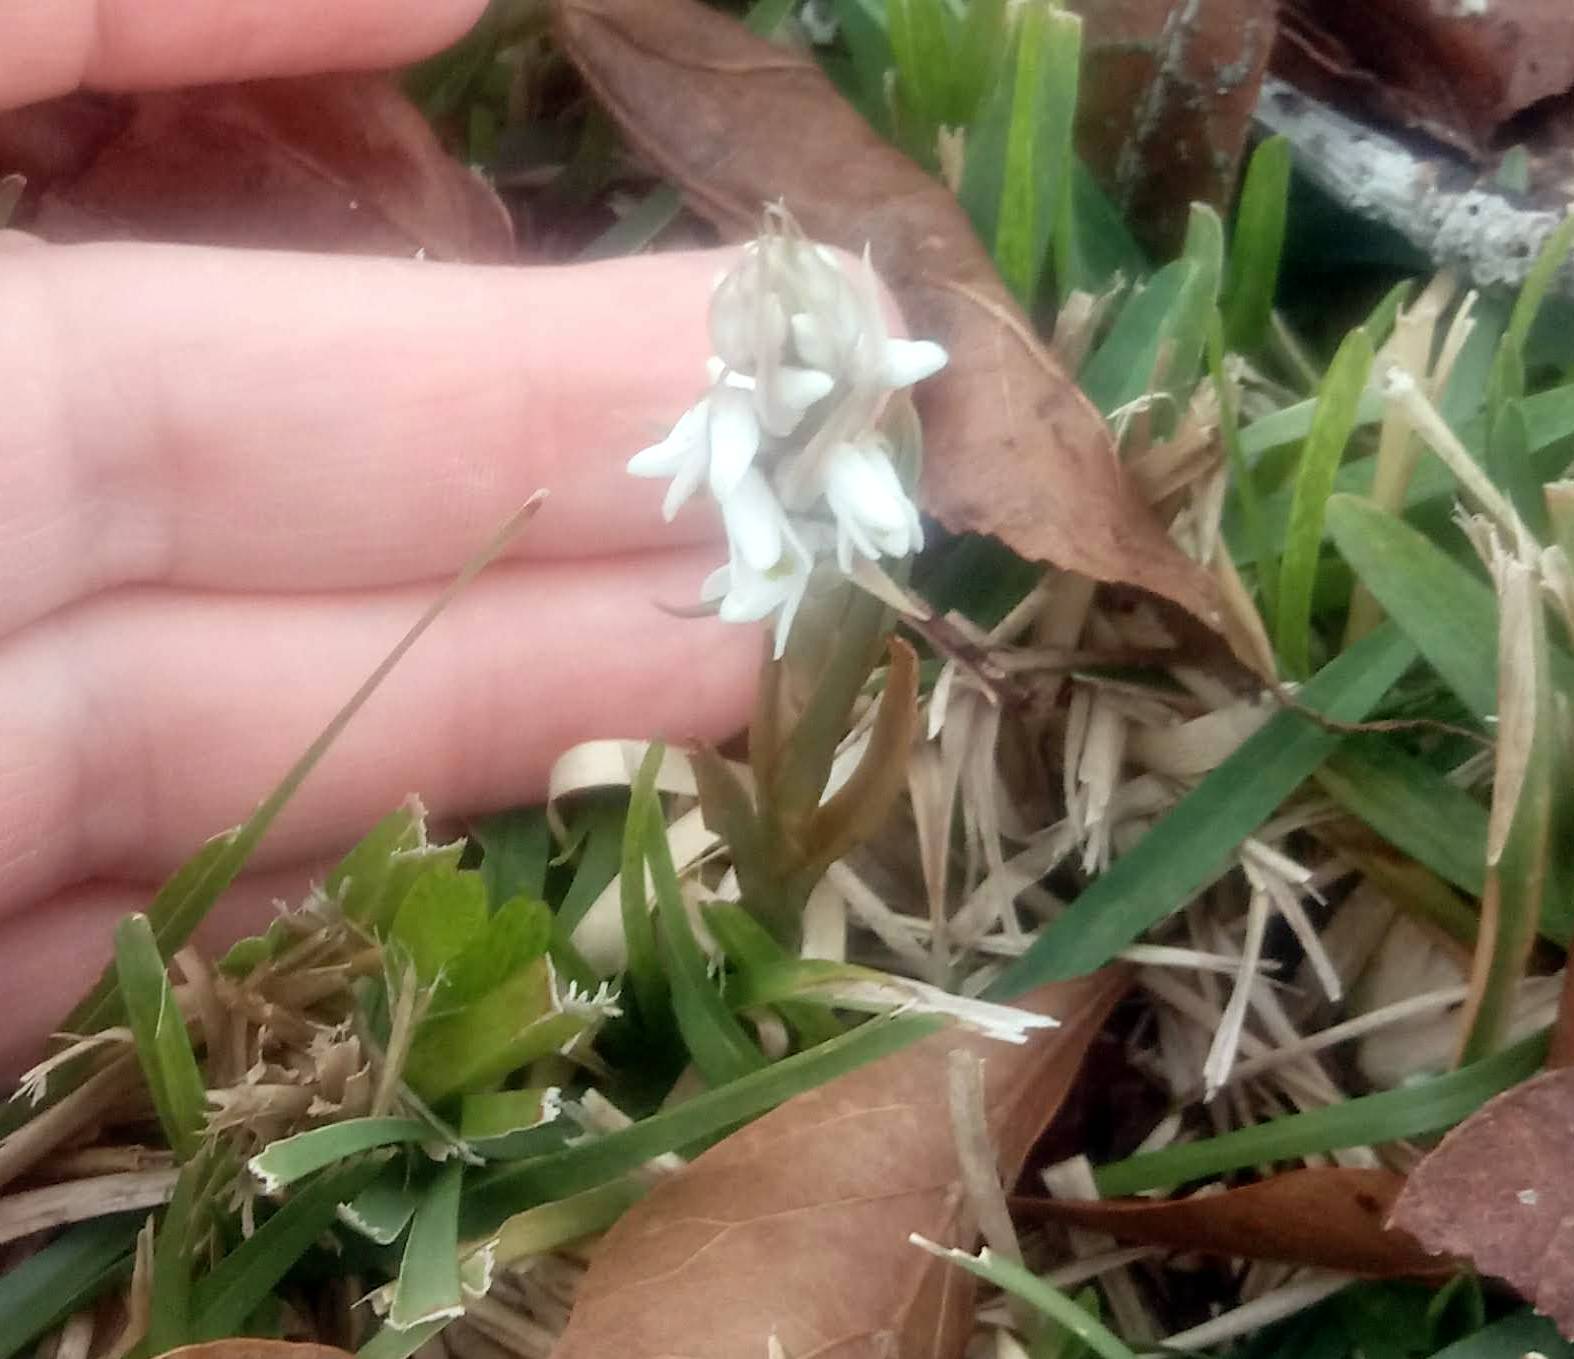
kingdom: Plantae
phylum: Tracheophyta
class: Liliopsida
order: Asparagales
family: Orchidaceae
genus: Zeuxine
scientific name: Zeuxine strateumatica
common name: Soldier's orchid
